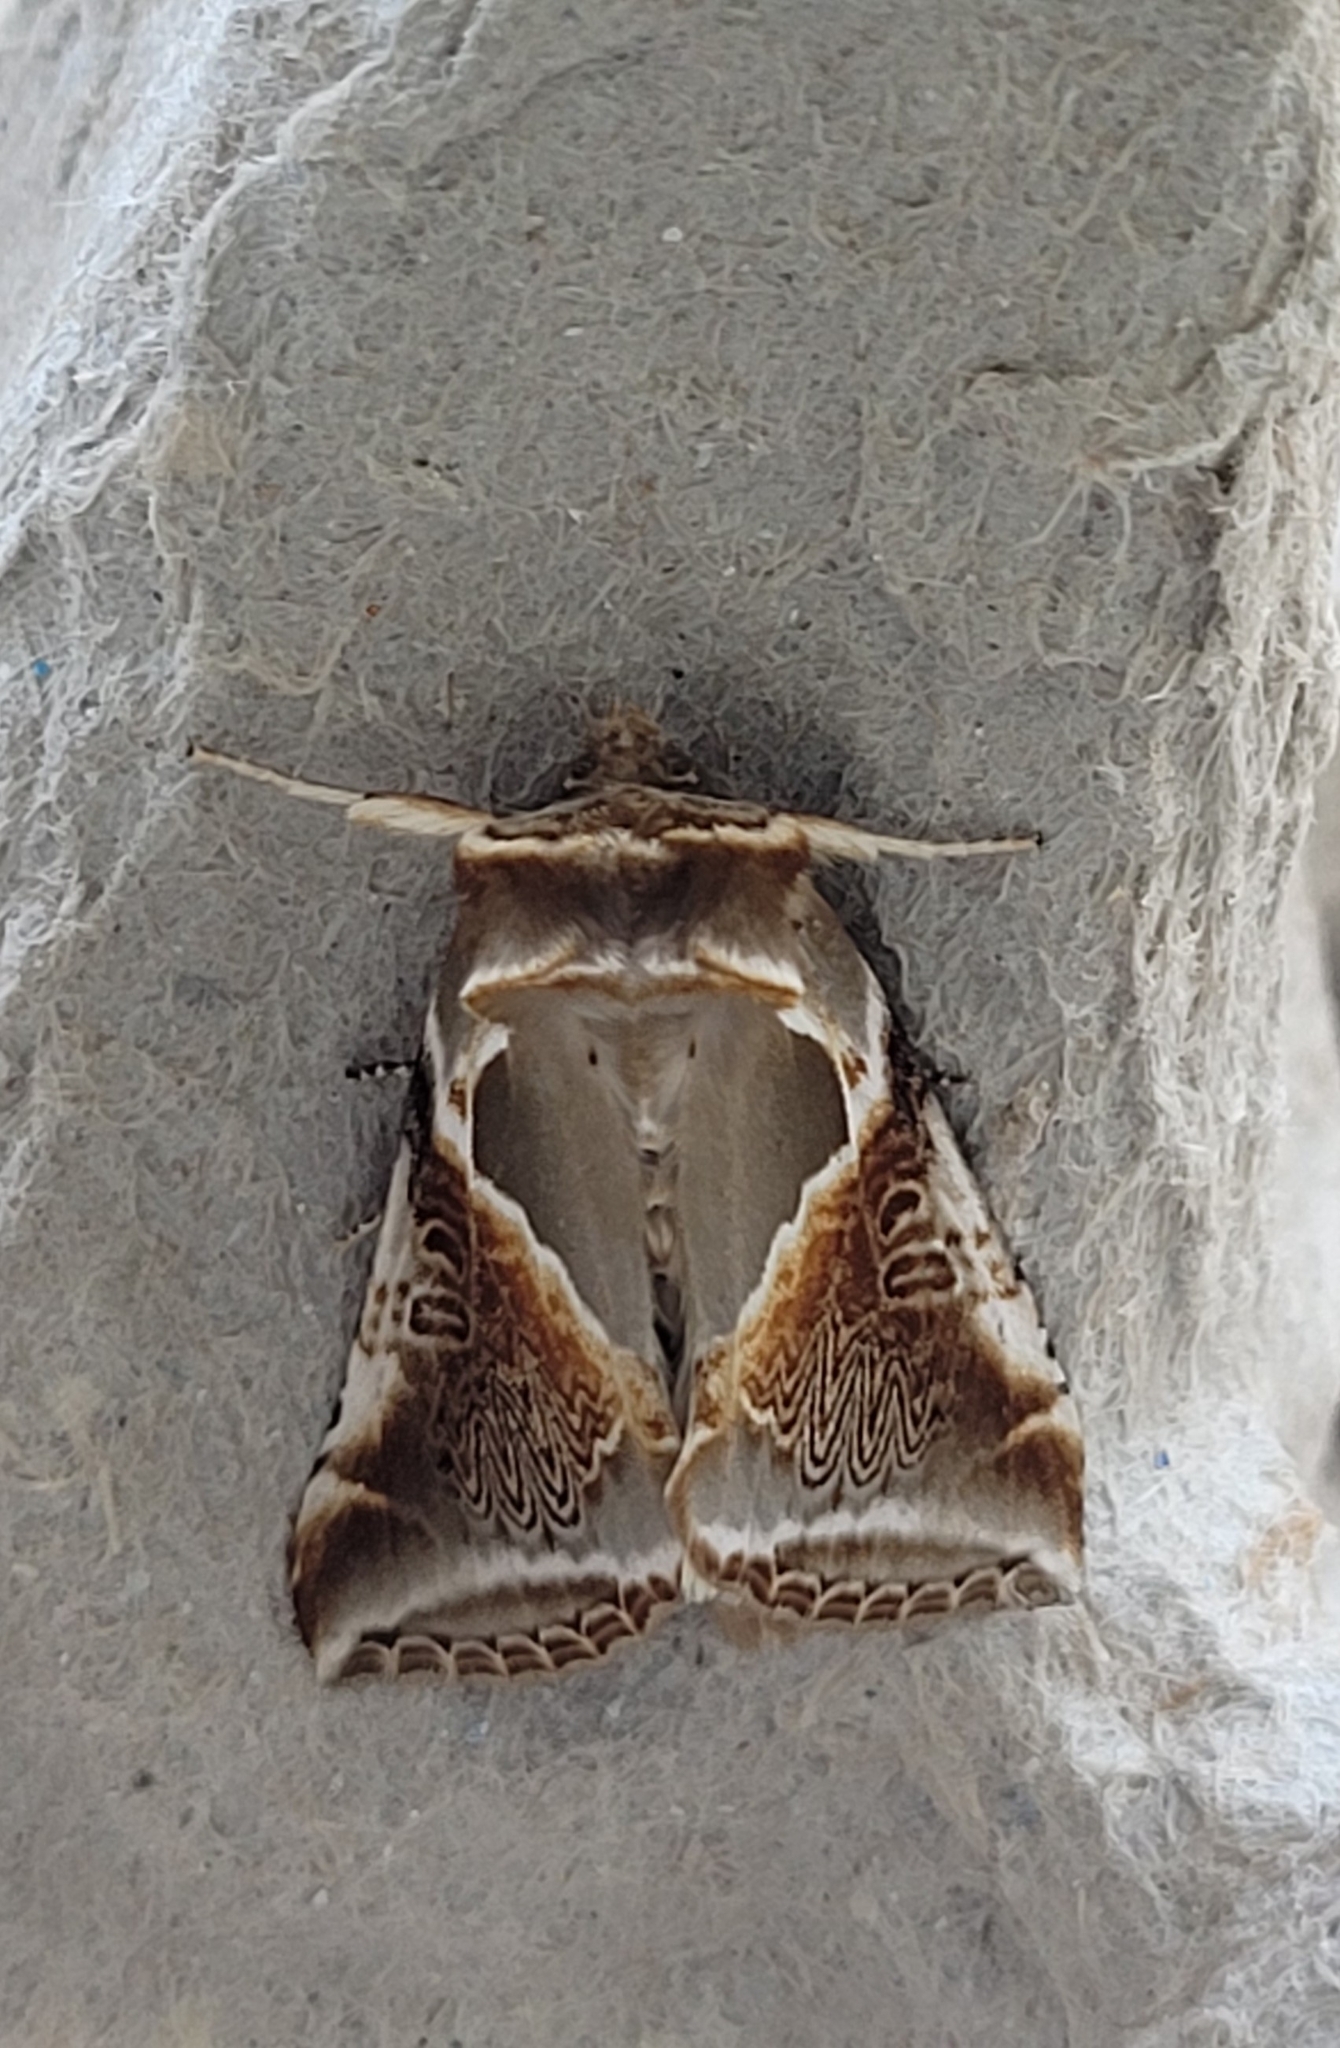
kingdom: Animalia
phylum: Arthropoda
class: Insecta
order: Lepidoptera
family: Drepanidae
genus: Habrosyne
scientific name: Habrosyne pyritoides
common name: Buff arches
